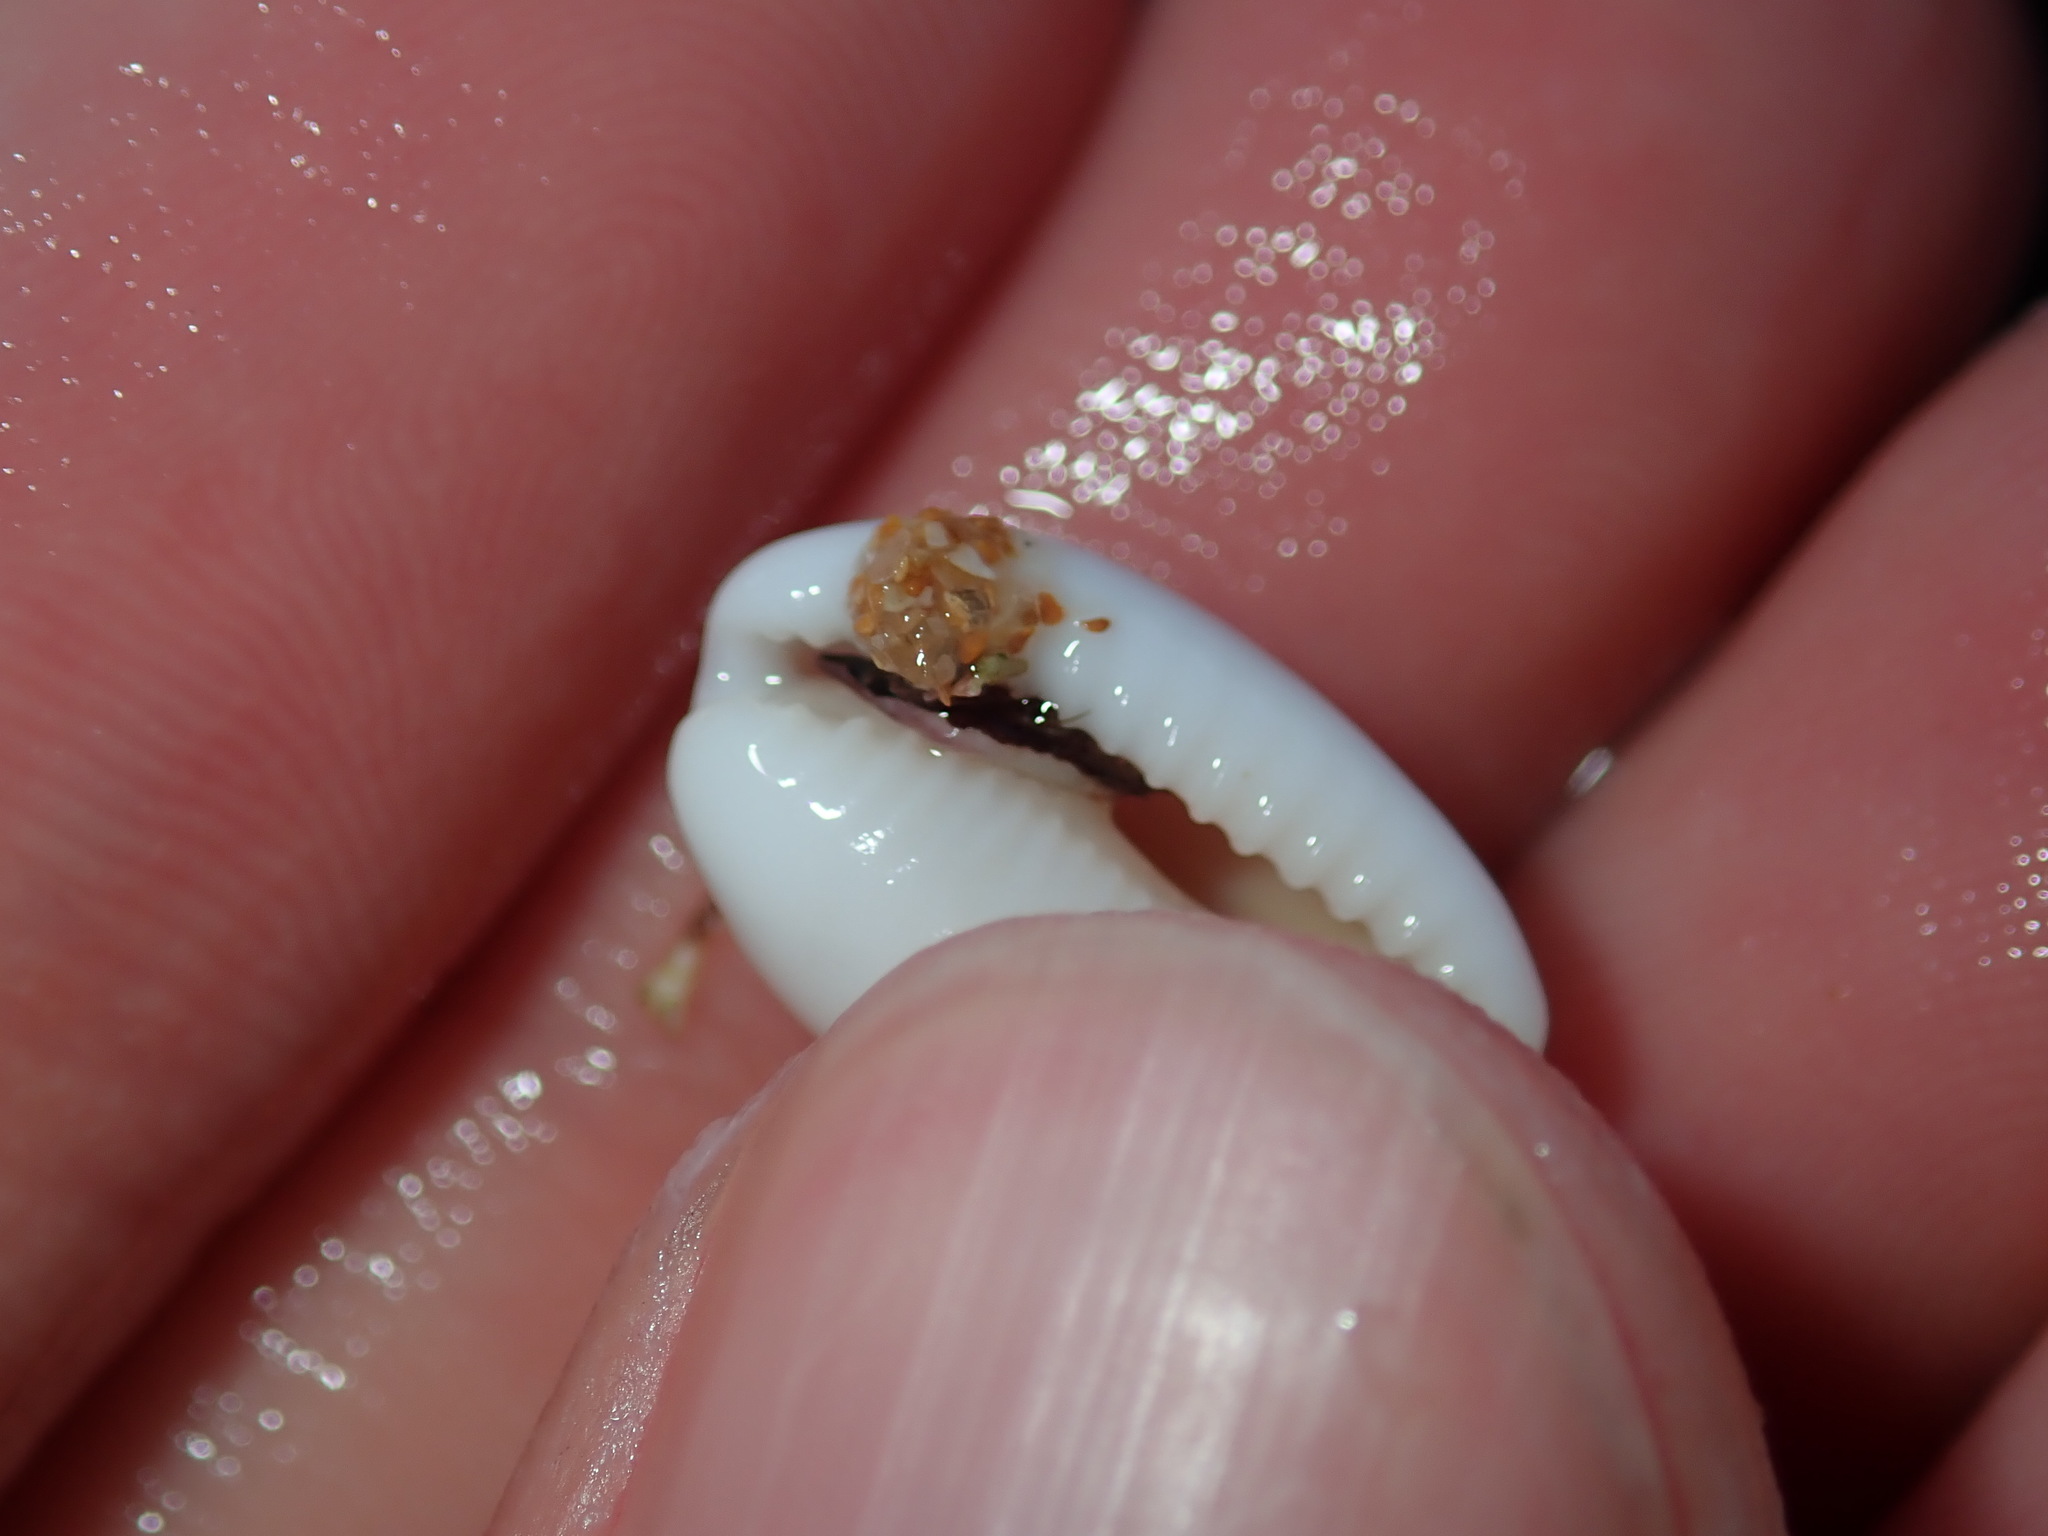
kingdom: Animalia
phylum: Mollusca
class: Gastropoda
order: Littorinimorpha
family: Cypraeidae
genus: Palmadusta
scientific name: Palmadusta clandestina
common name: Cowrie
